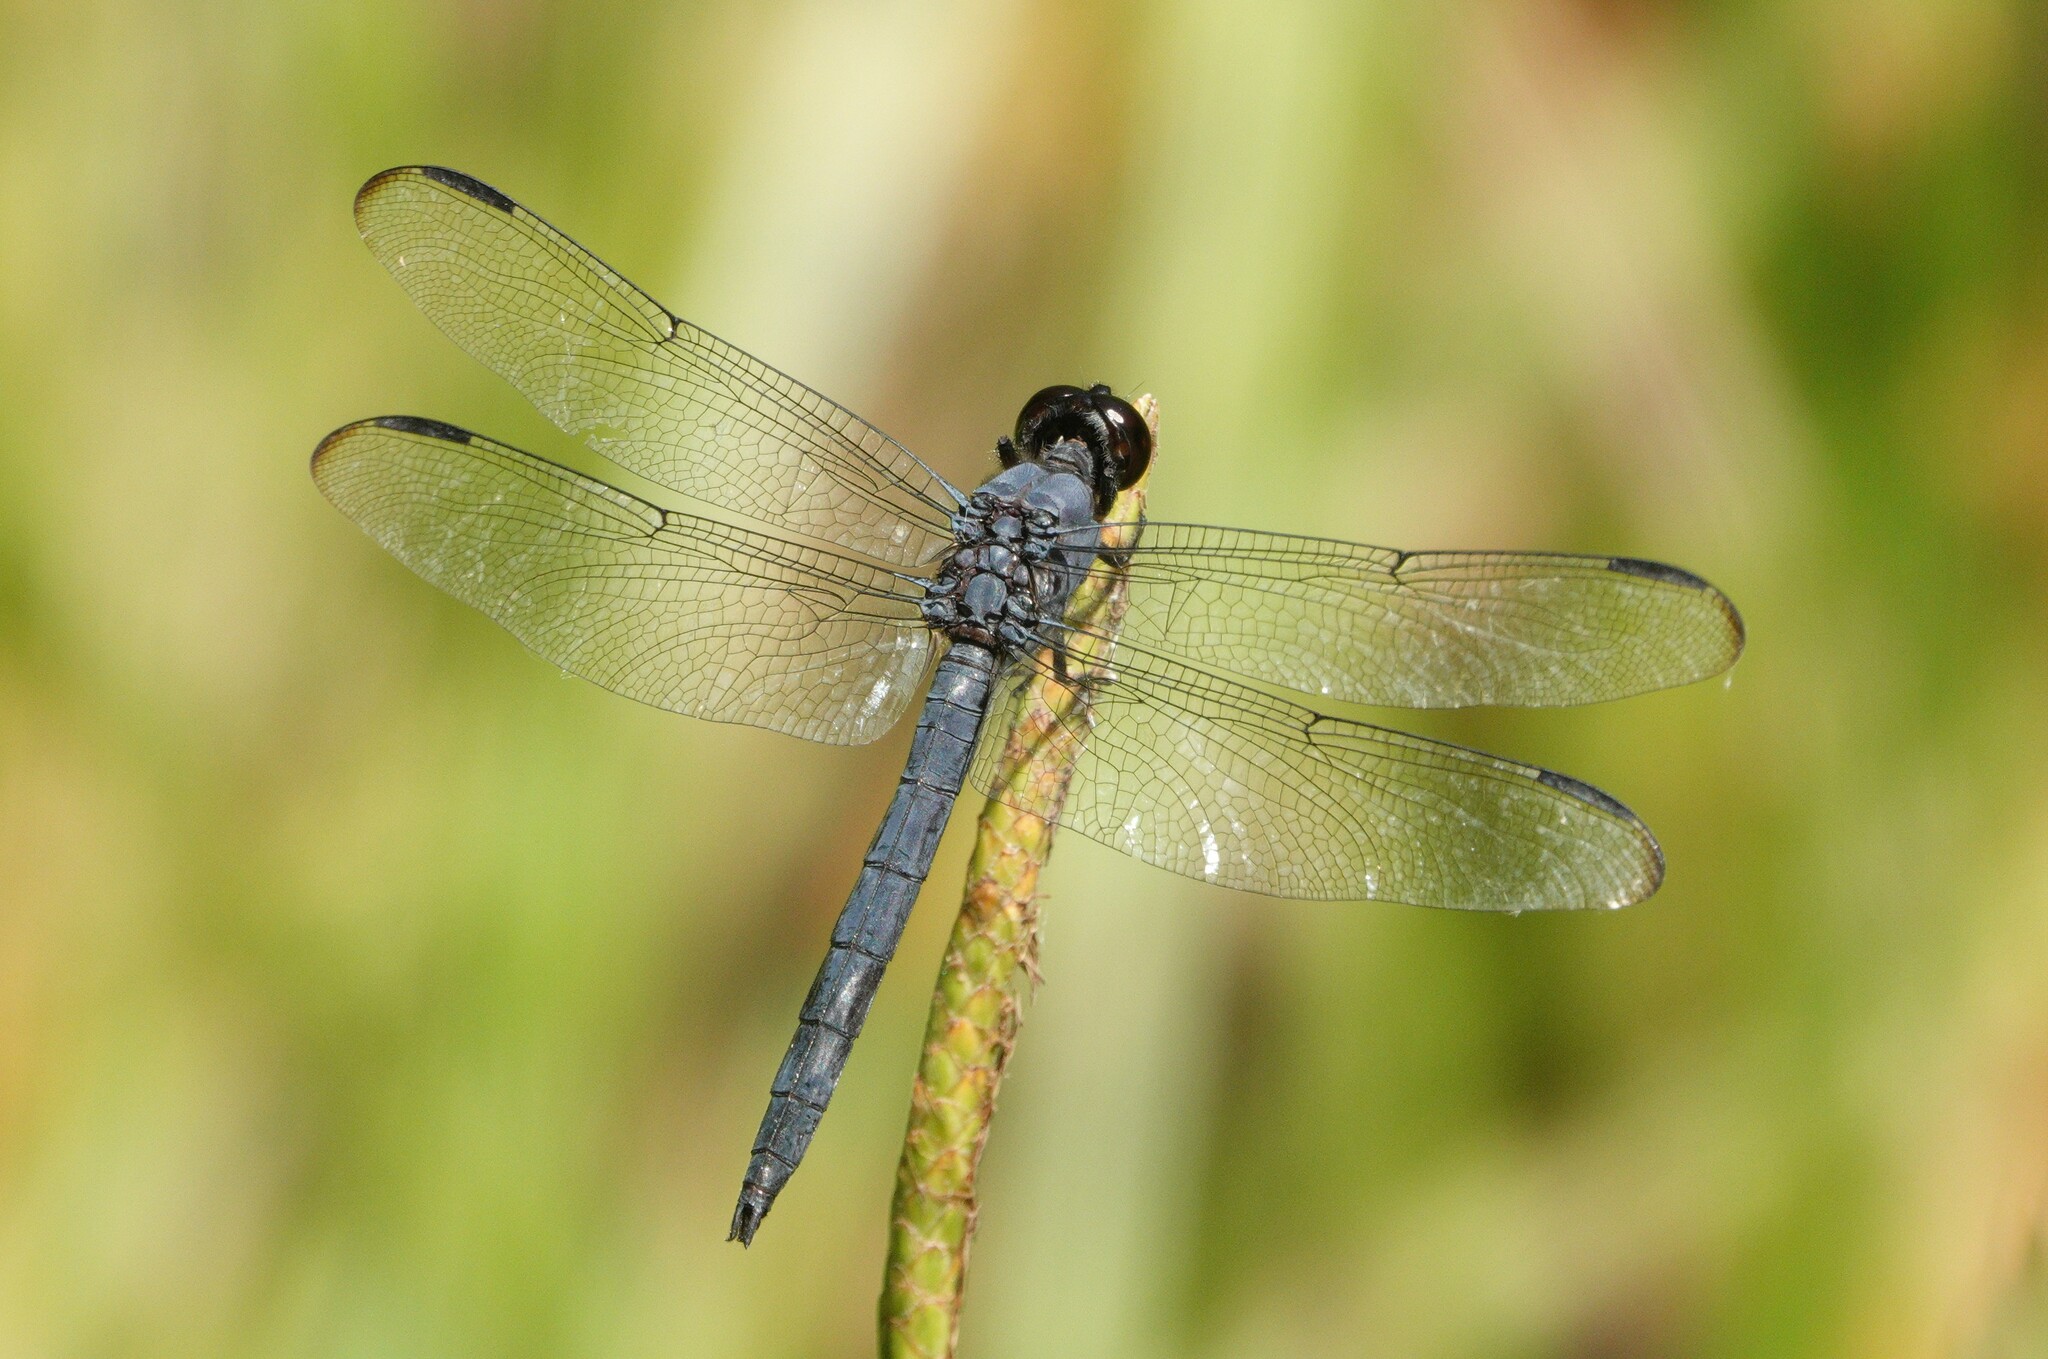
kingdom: Animalia
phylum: Arthropoda
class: Insecta
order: Odonata
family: Libellulidae
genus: Libellula
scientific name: Libellula incesta
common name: Slaty skimmer
